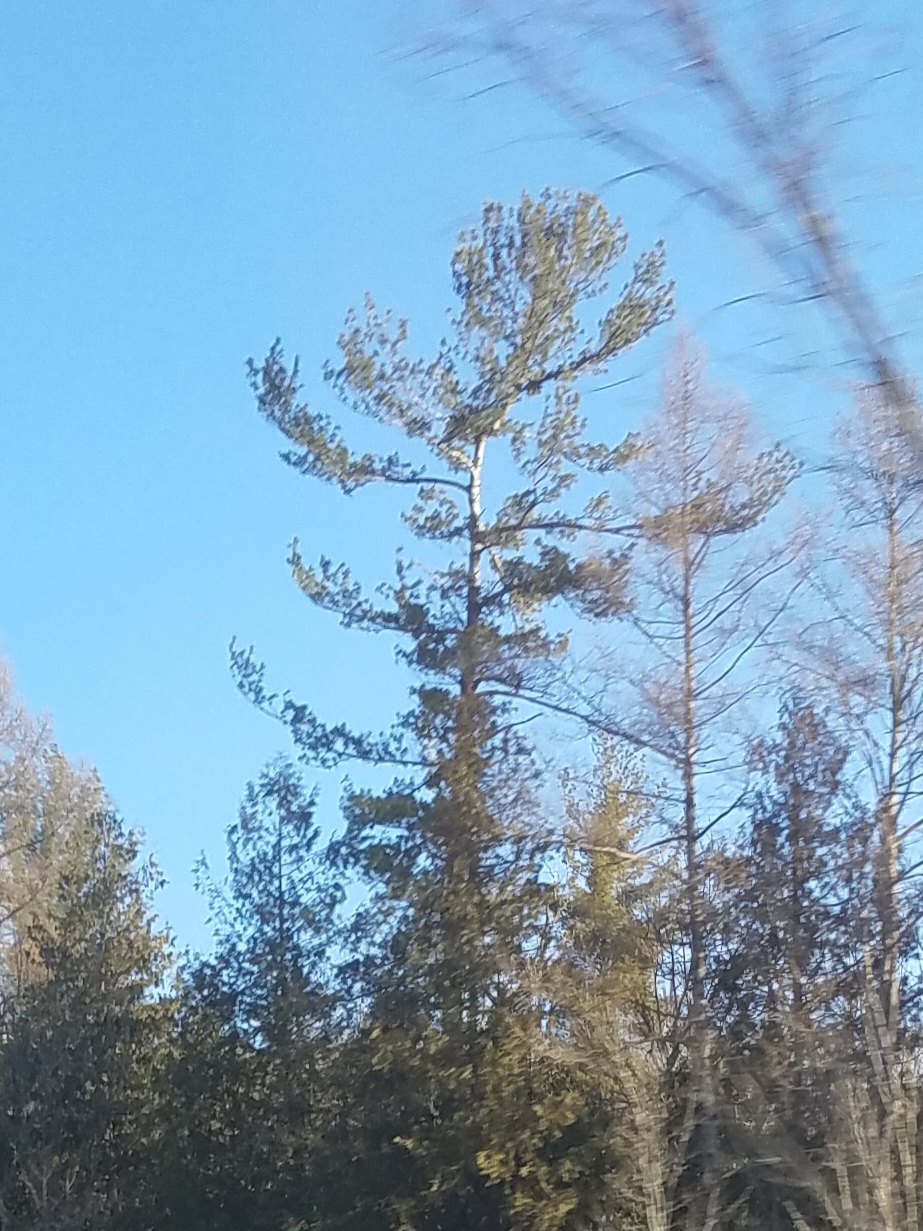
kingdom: Plantae
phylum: Tracheophyta
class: Pinopsida
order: Pinales
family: Pinaceae
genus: Pinus
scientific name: Pinus strobus
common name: Weymouth pine
